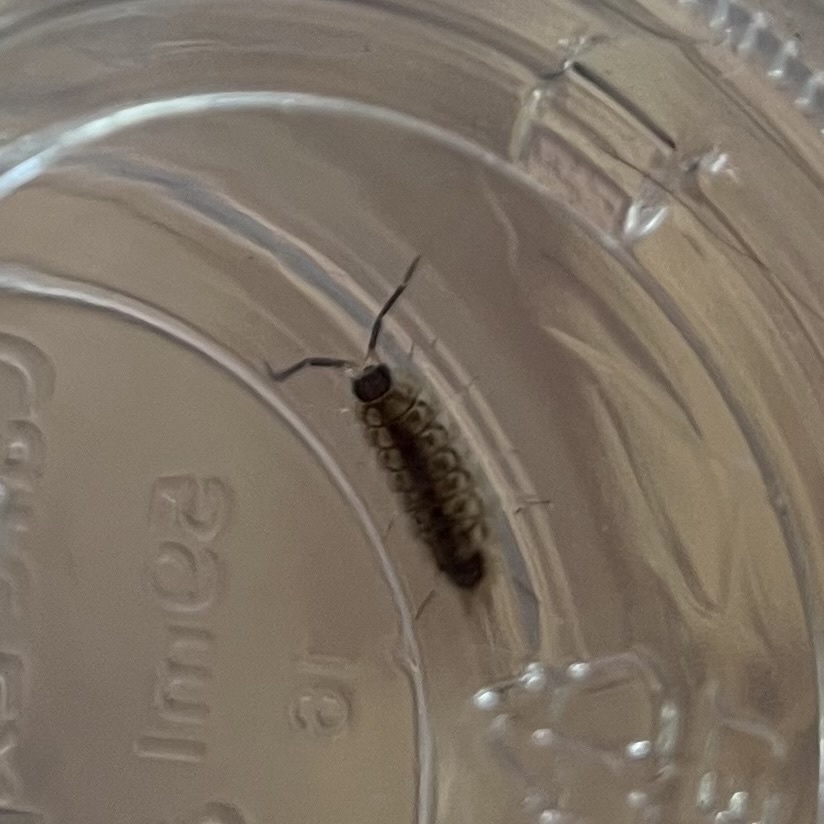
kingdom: Animalia
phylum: Arthropoda
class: Malacostraca
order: Isopoda
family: Porcellionidae
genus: Porcellio
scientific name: Porcellio spinicornis
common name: Painted woodlouse
